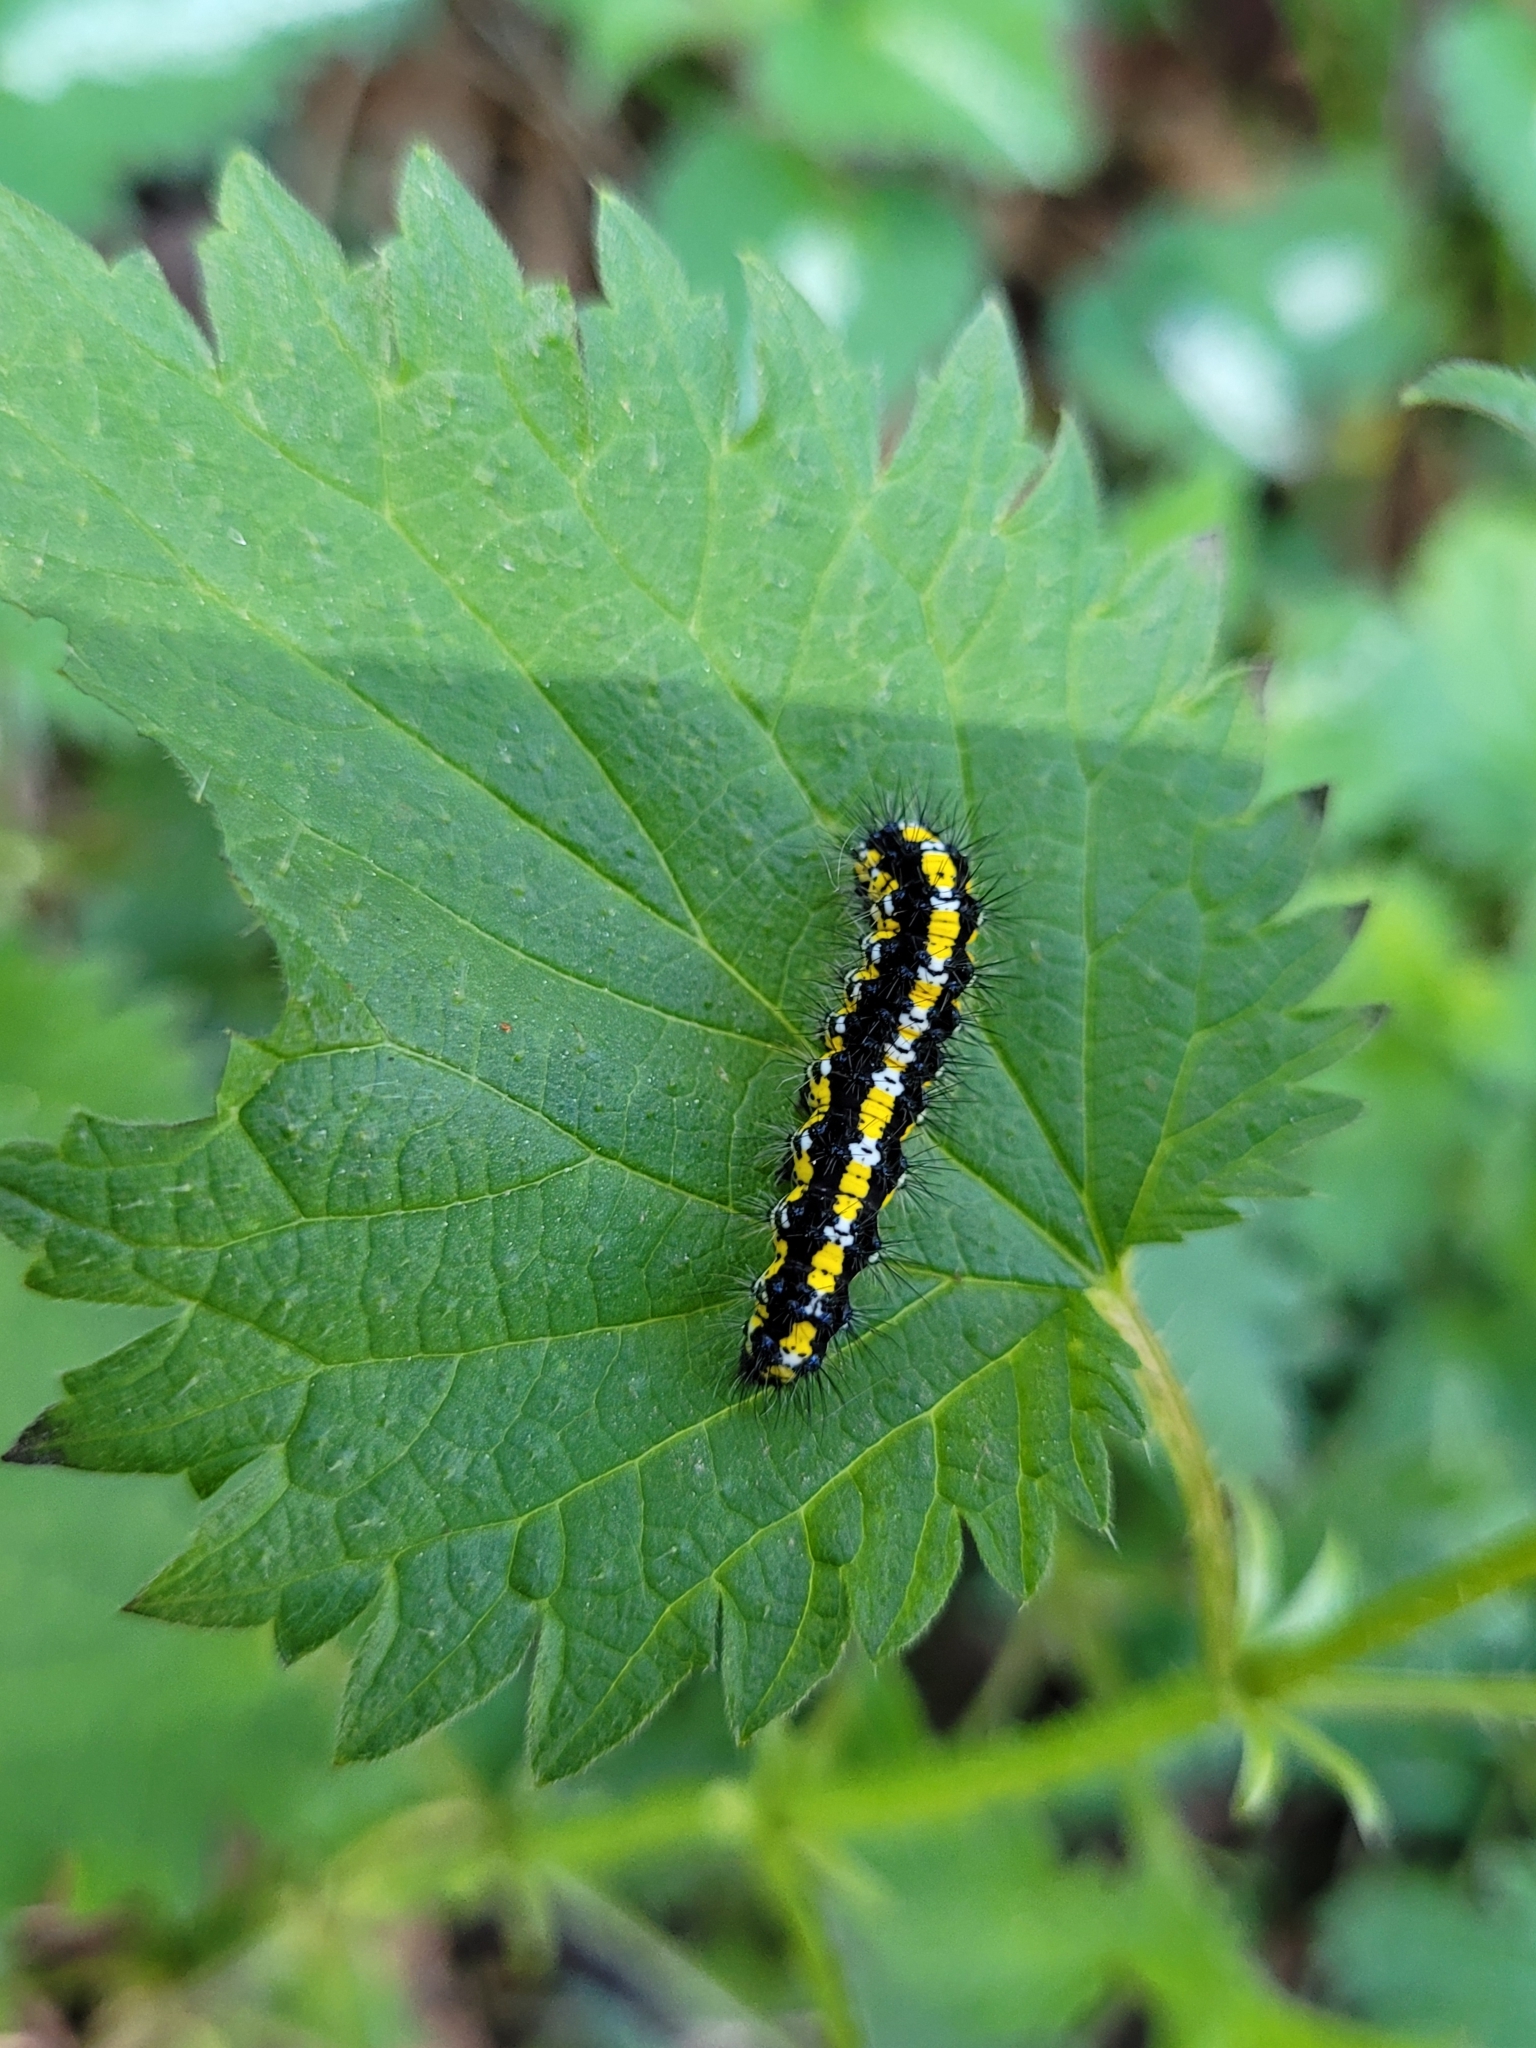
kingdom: Animalia
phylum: Arthropoda
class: Insecta
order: Lepidoptera
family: Erebidae
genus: Callimorpha
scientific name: Callimorpha dominula
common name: Scarlet tiger
